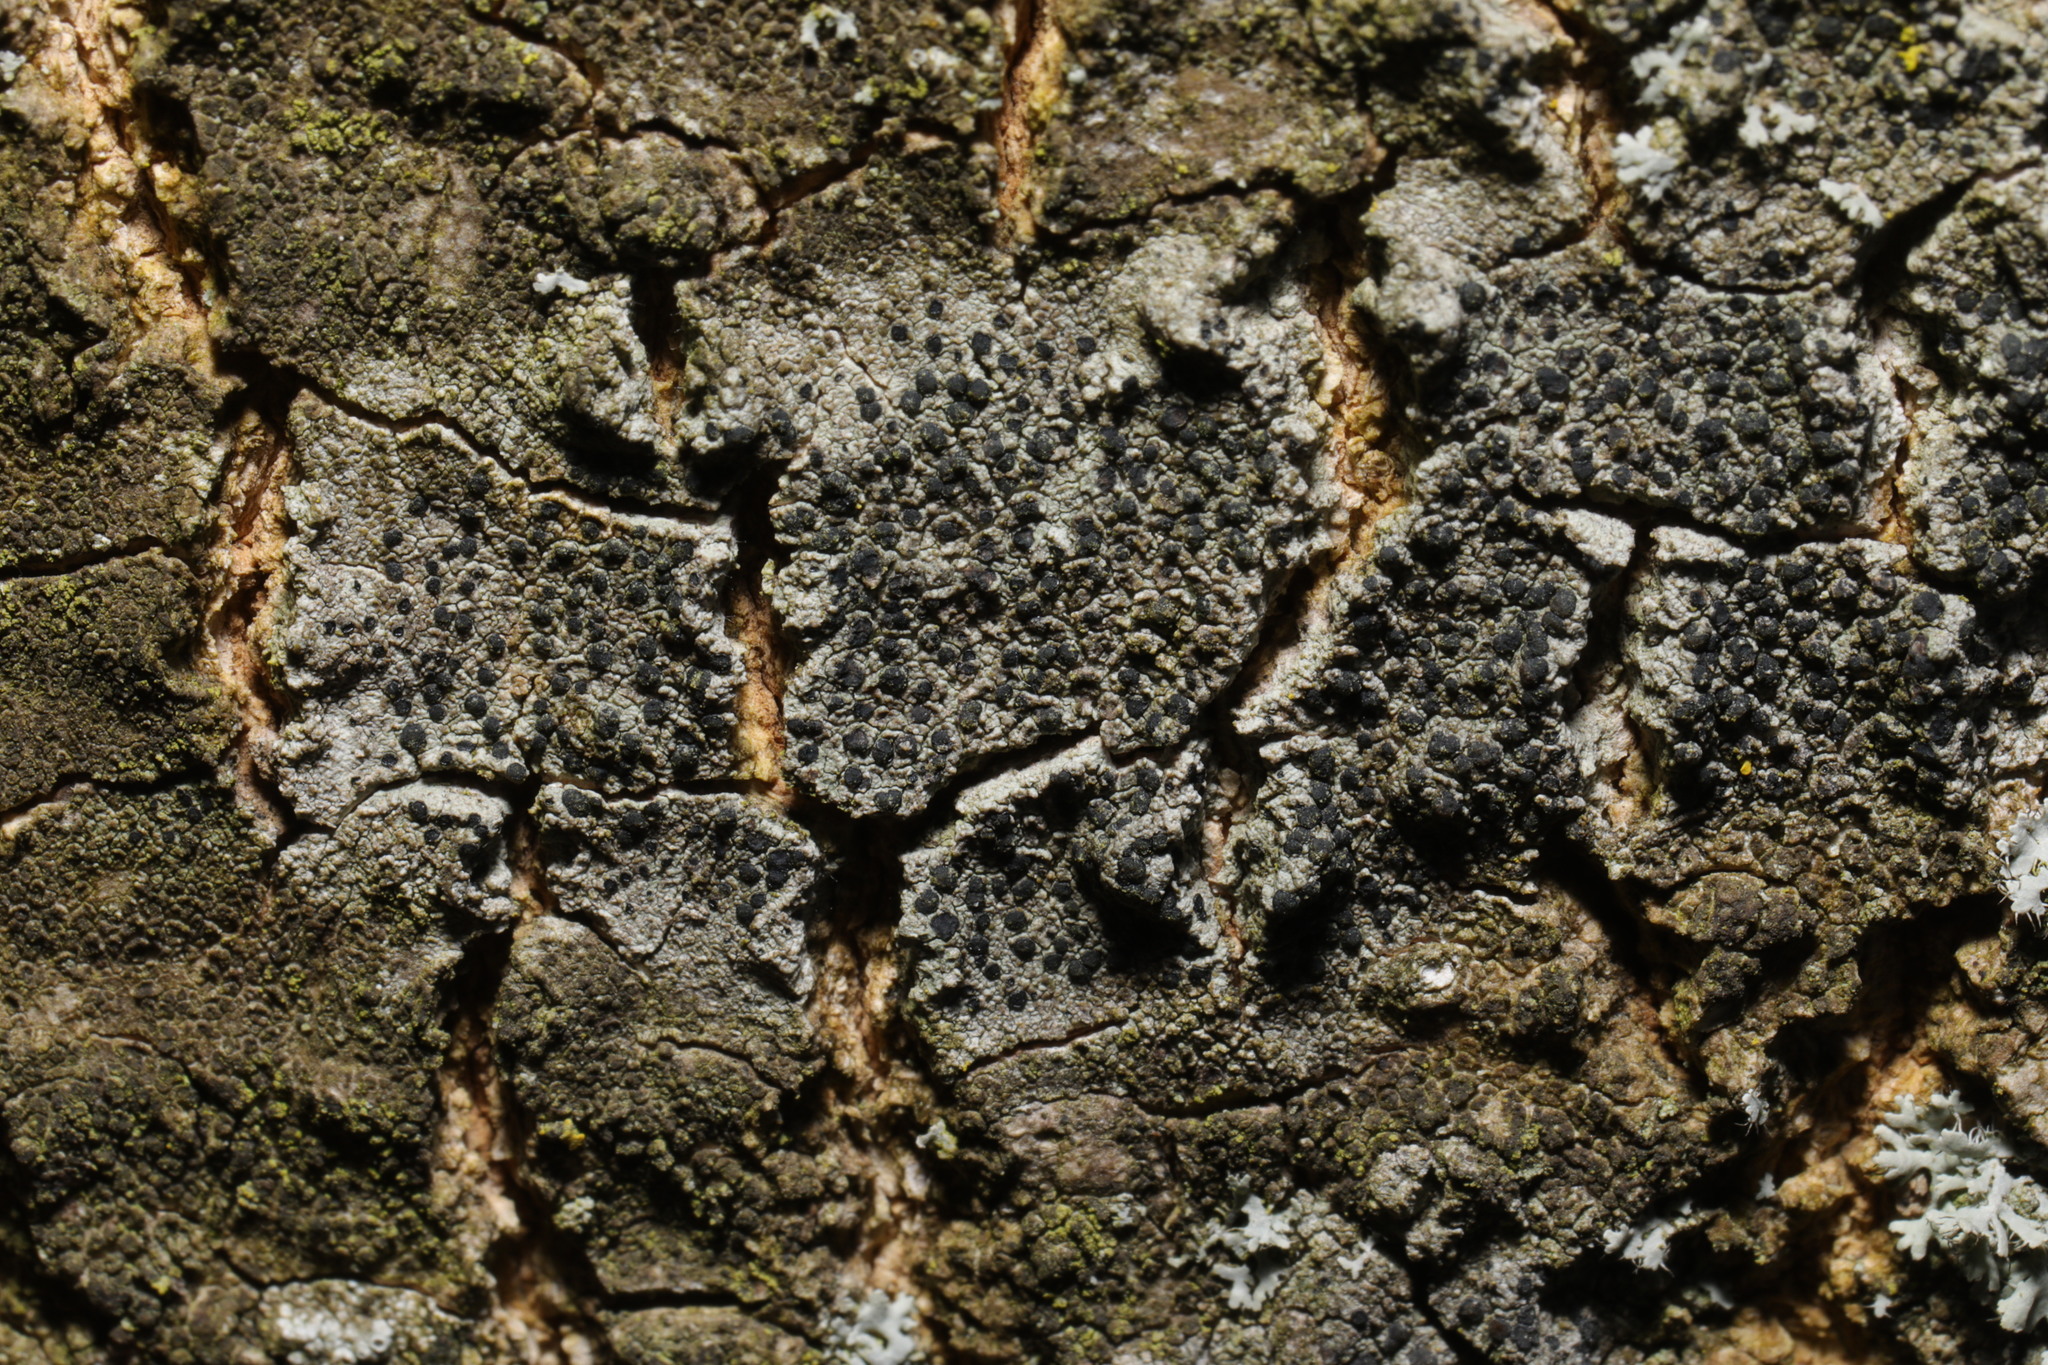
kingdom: Fungi
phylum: Ascomycota
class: Lecanoromycetes
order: Lecanorales
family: Lecanoraceae
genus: Lecidella
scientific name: Lecidella elaeochroma
